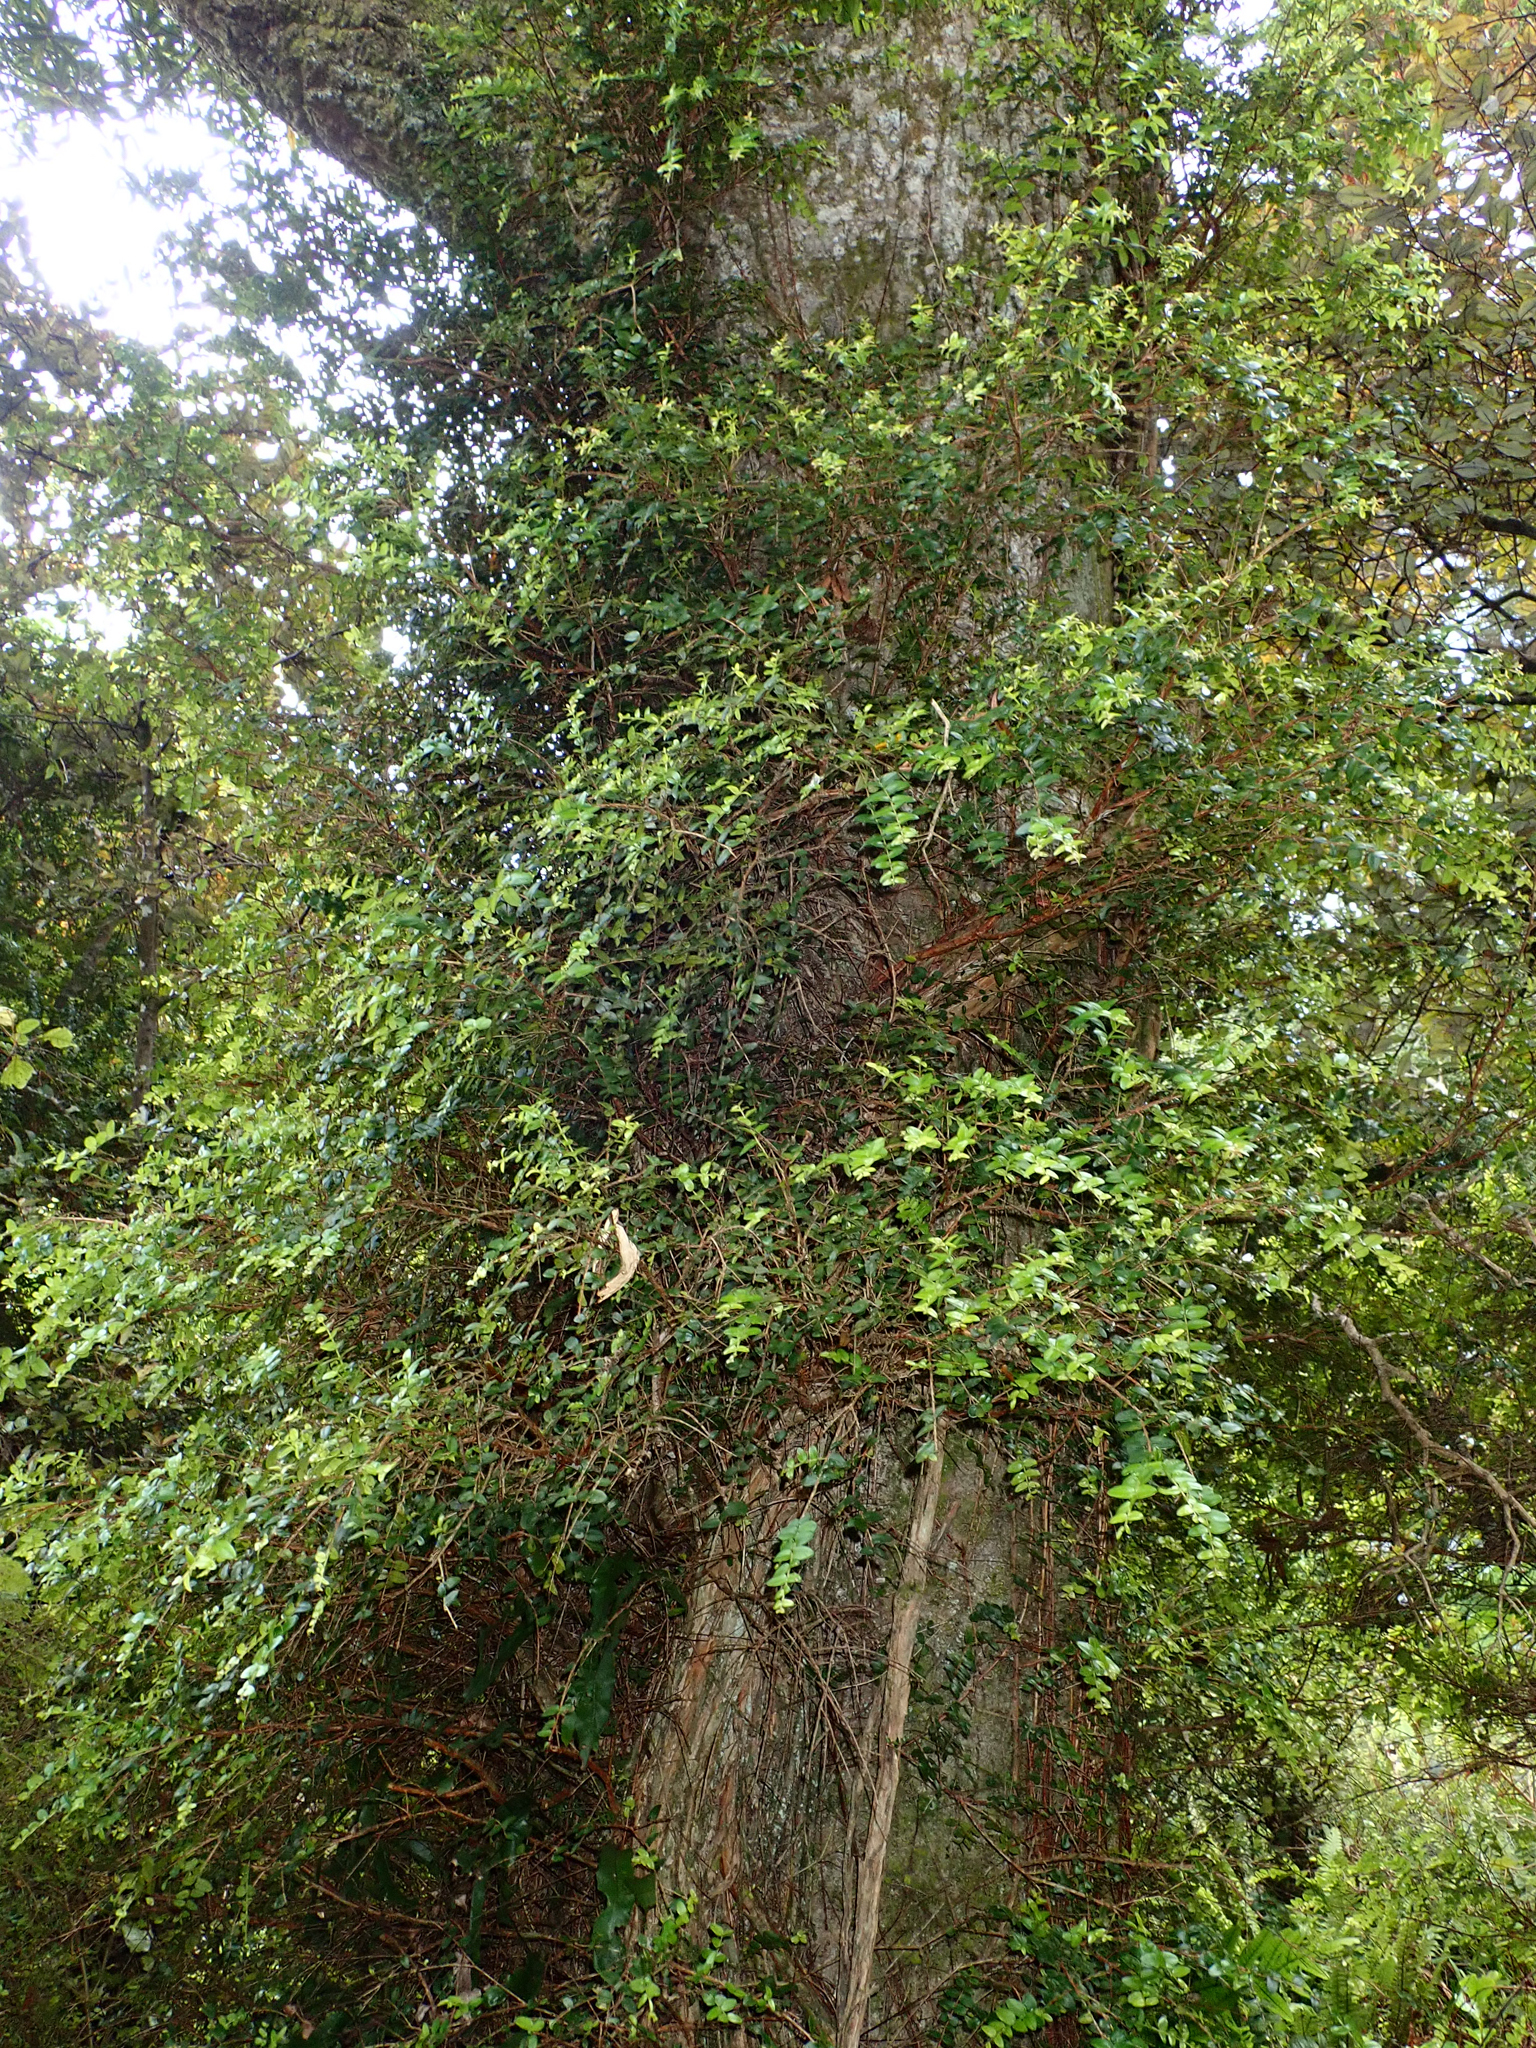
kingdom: Plantae
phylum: Tracheophyta
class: Magnoliopsida
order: Myrtales
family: Myrtaceae
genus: Metrosideros
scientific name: Metrosideros diffusa
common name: Small ratavine
